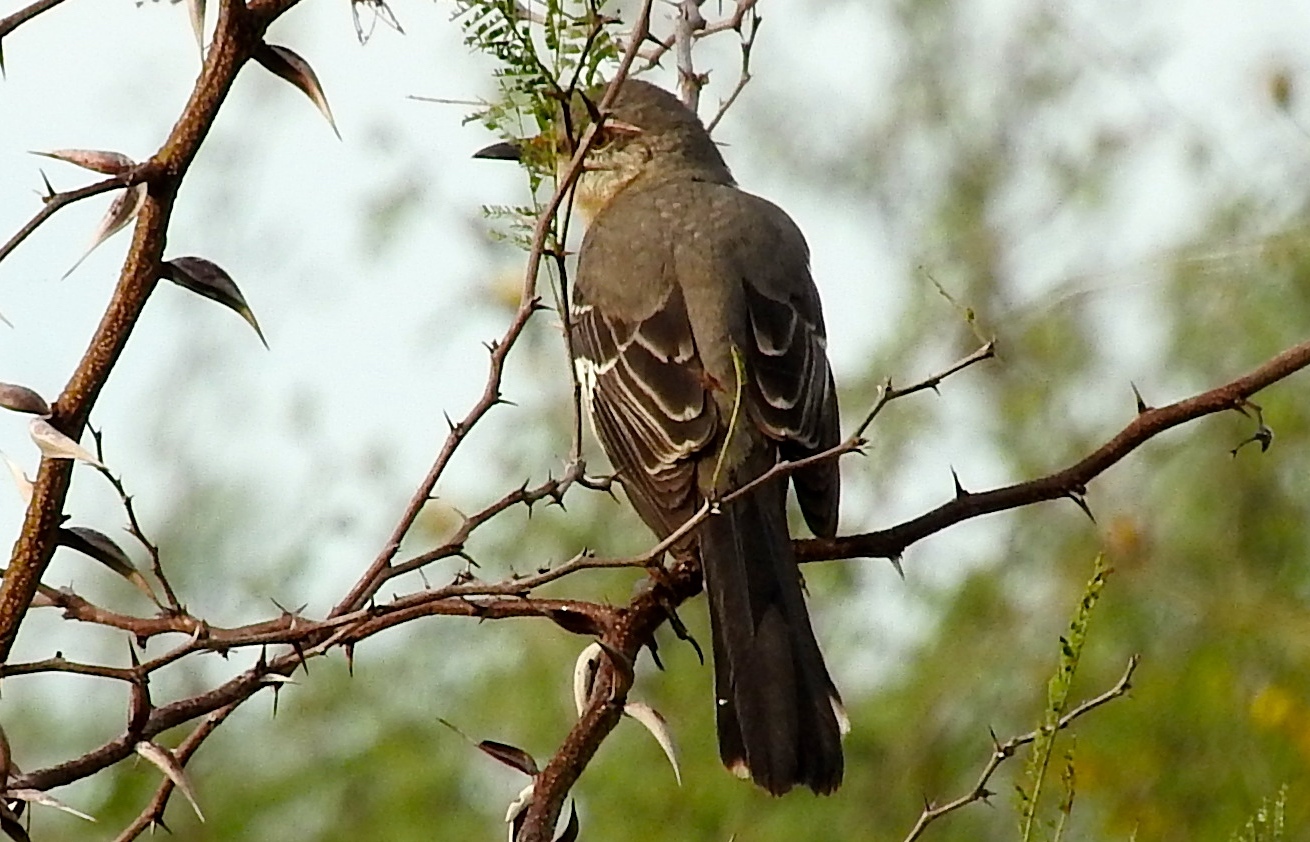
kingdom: Animalia
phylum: Chordata
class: Aves
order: Passeriformes
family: Mimidae
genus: Mimus
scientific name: Mimus polyglottos
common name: Northern mockingbird
